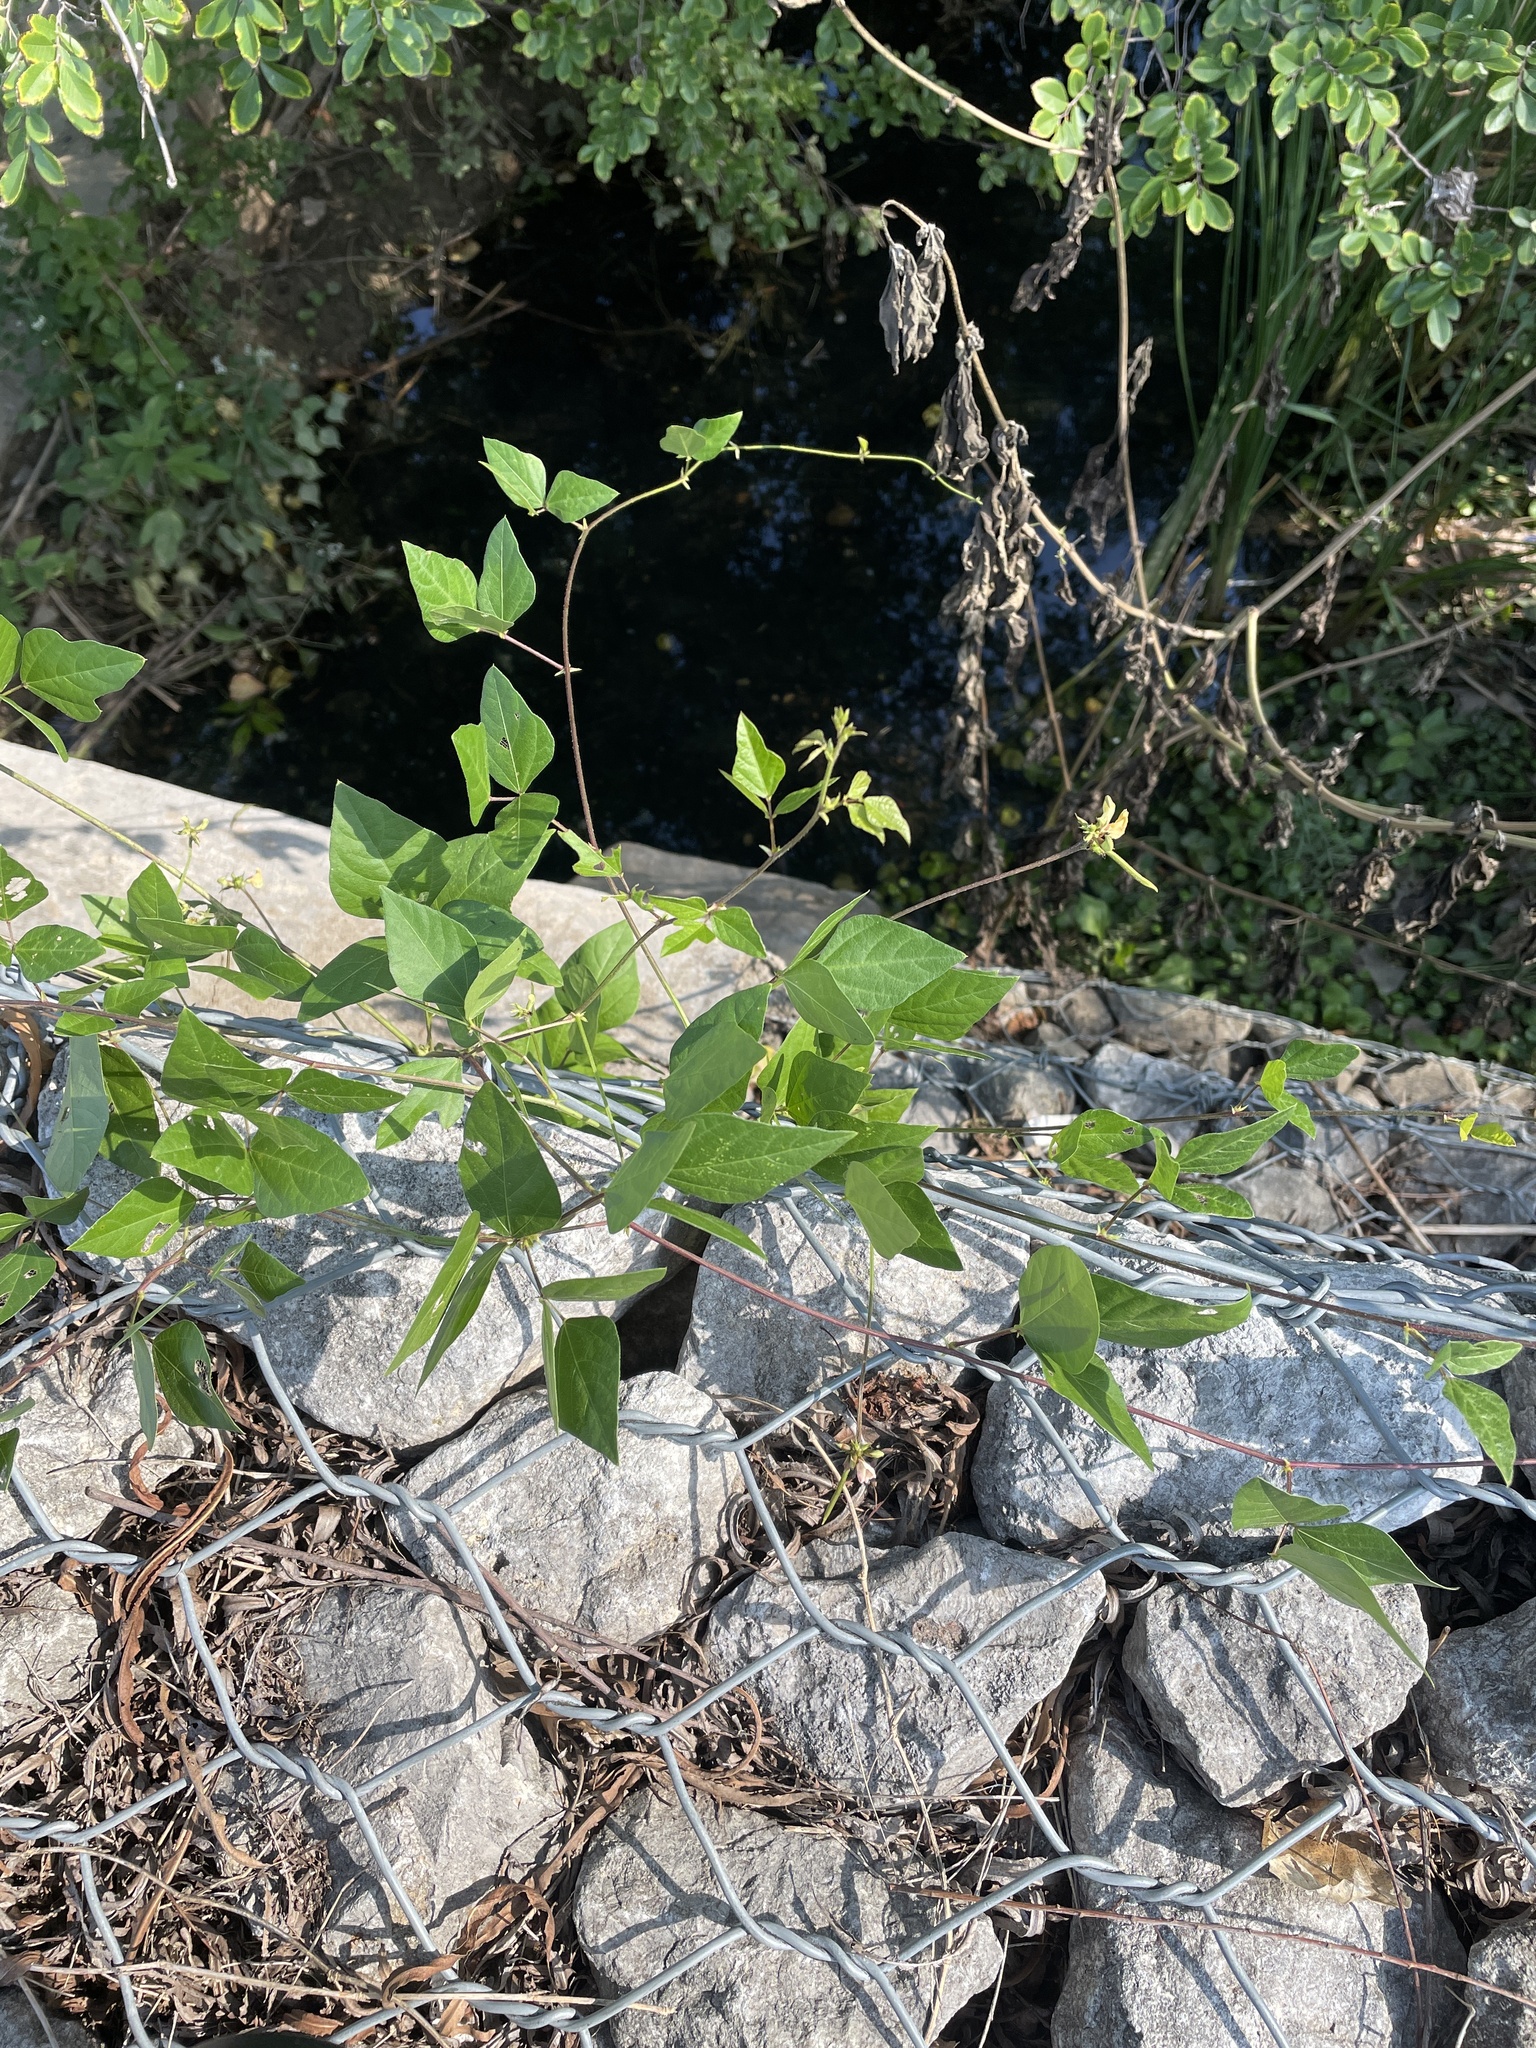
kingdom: Plantae
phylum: Tracheophyta
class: Magnoliopsida
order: Fabales
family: Fabaceae
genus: Strophostyles
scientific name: Strophostyles helvola
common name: Trailing wild bean
